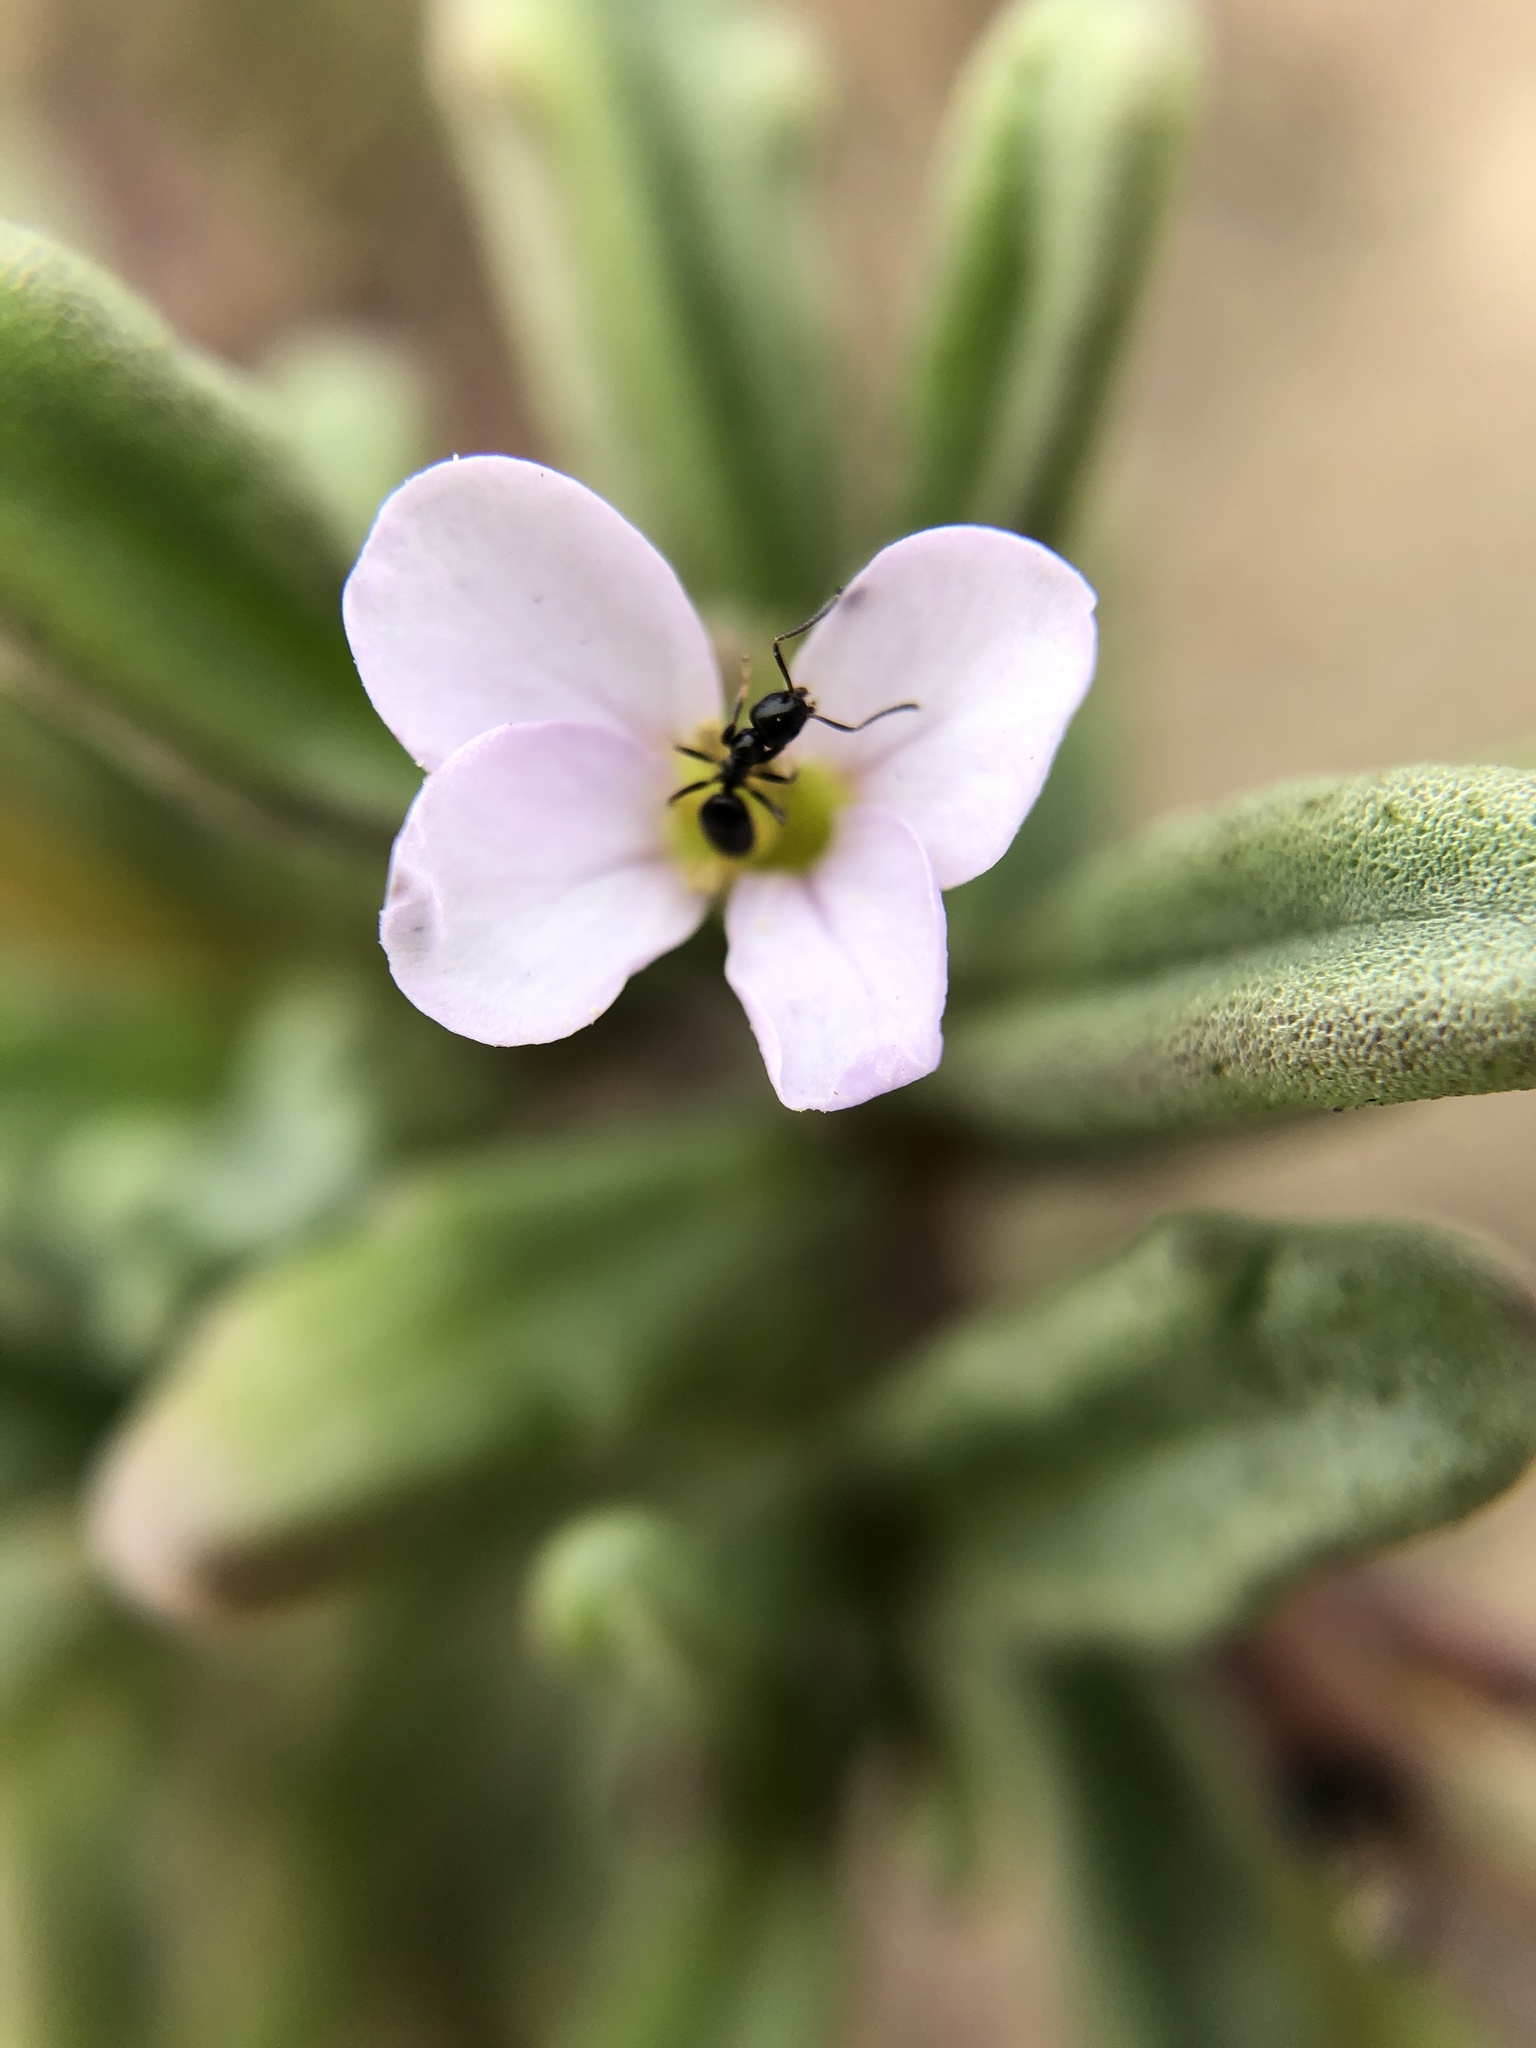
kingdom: Plantae
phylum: Tracheophyta
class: Magnoliopsida
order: Brassicales
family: Brassicaceae
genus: Cakile
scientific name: Cakile maritima
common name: Sea rocket
